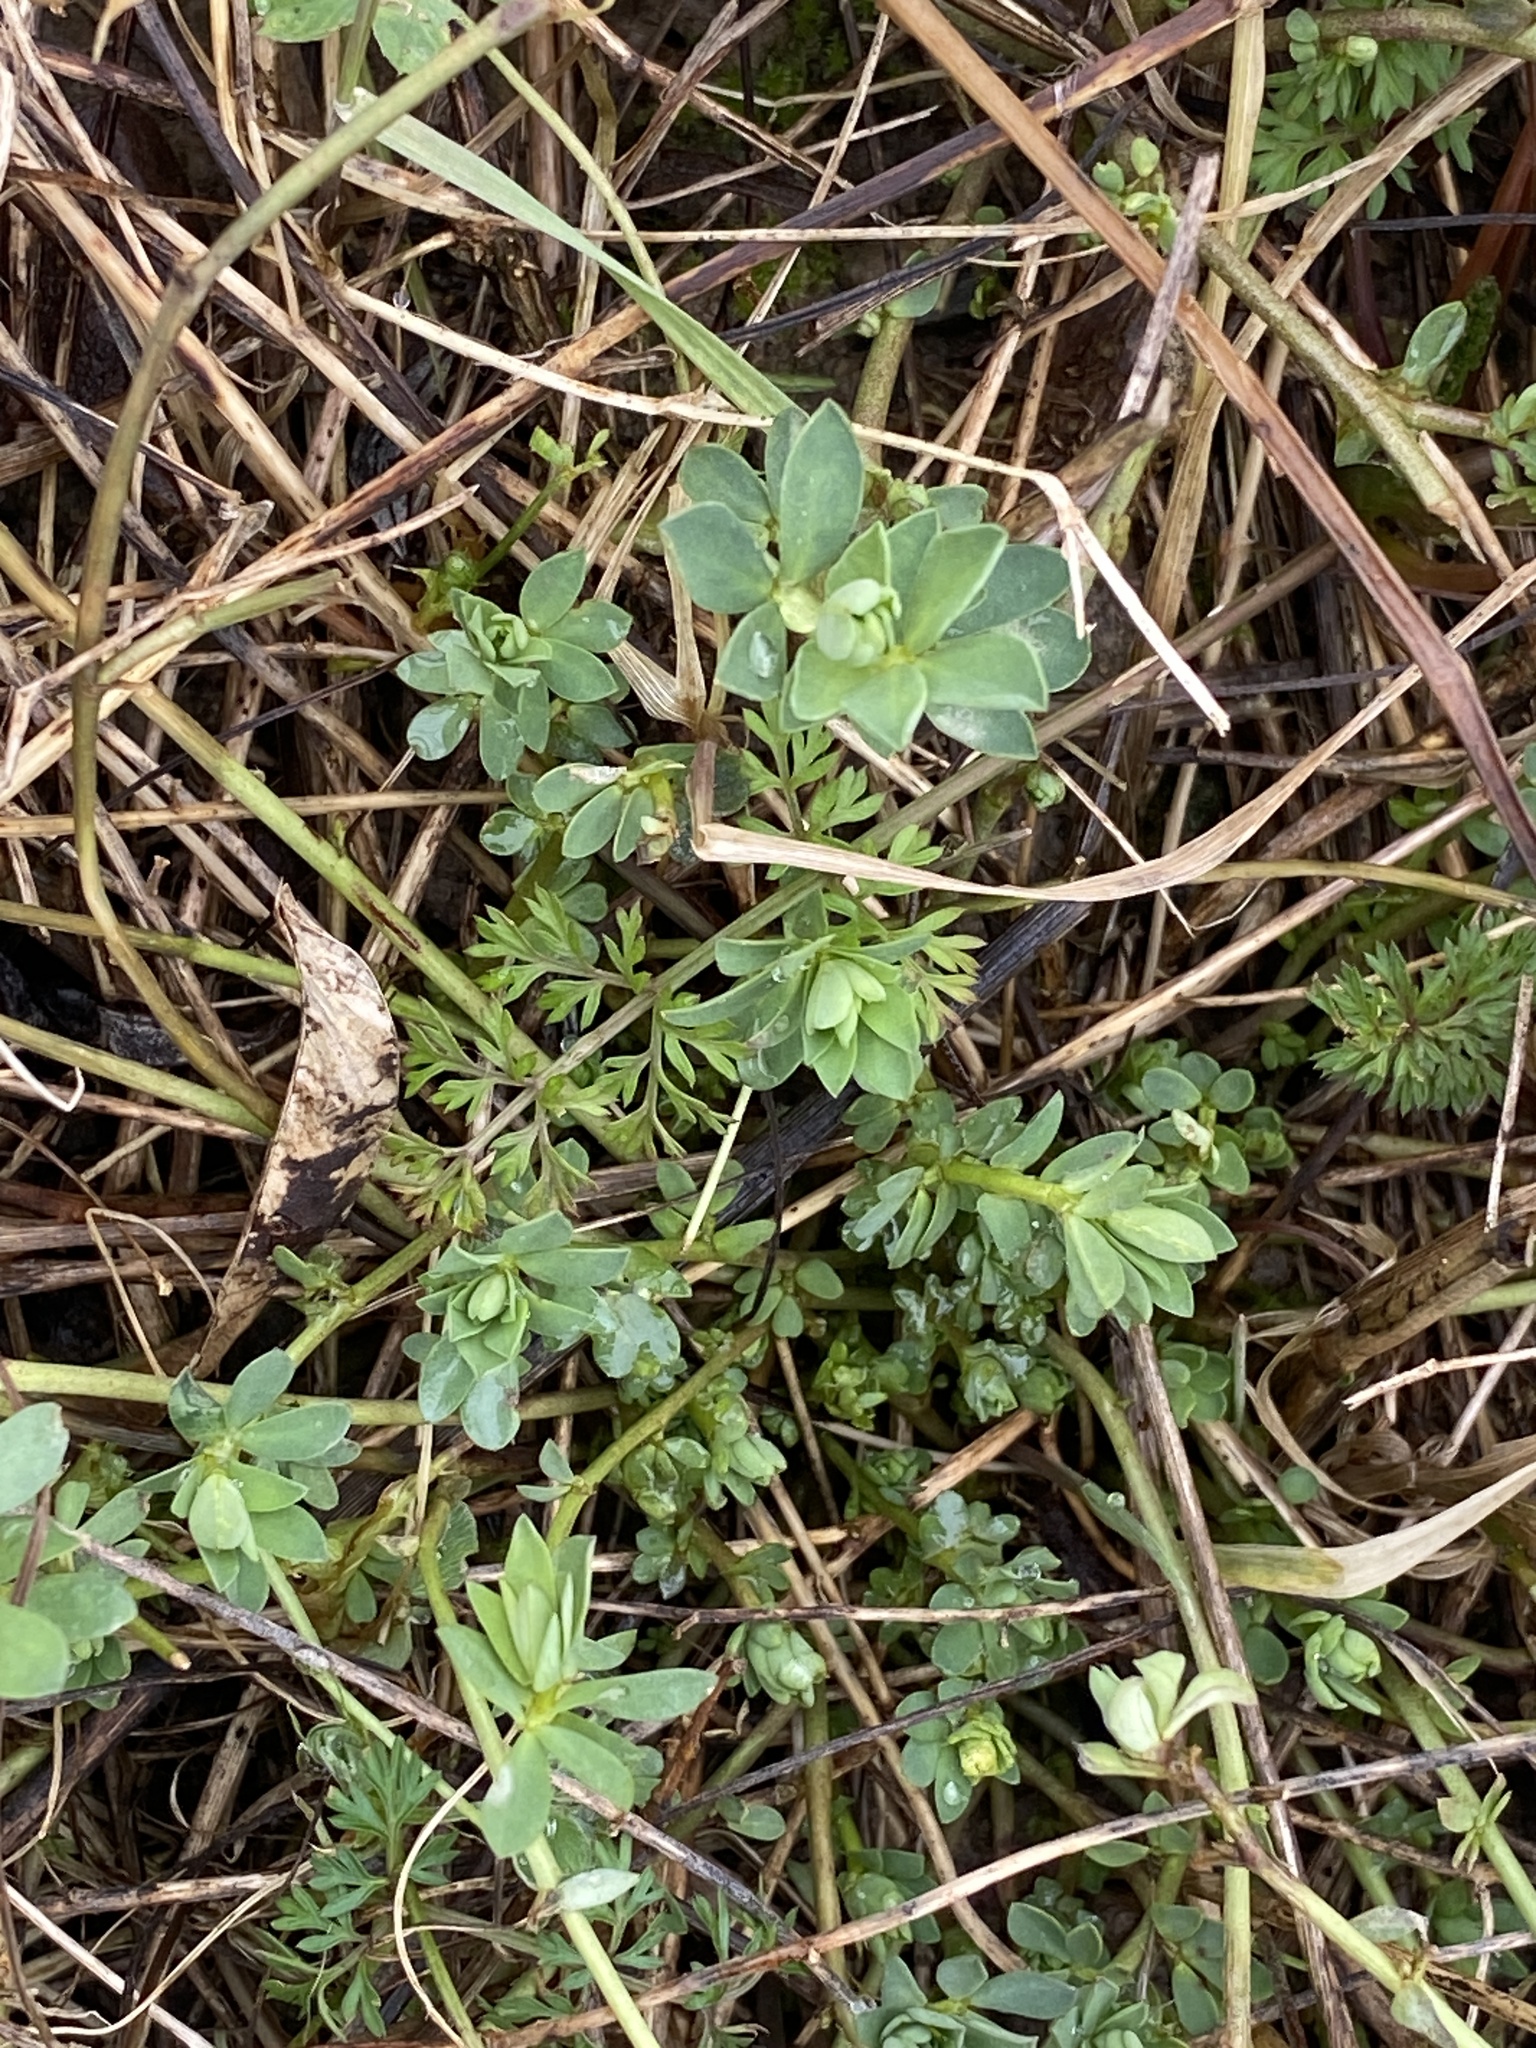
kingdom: Plantae
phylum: Tracheophyta
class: Magnoliopsida
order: Fabales
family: Fabaceae
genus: Lotus
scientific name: Lotus corniculatus
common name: Common bird's-foot-trefoil
